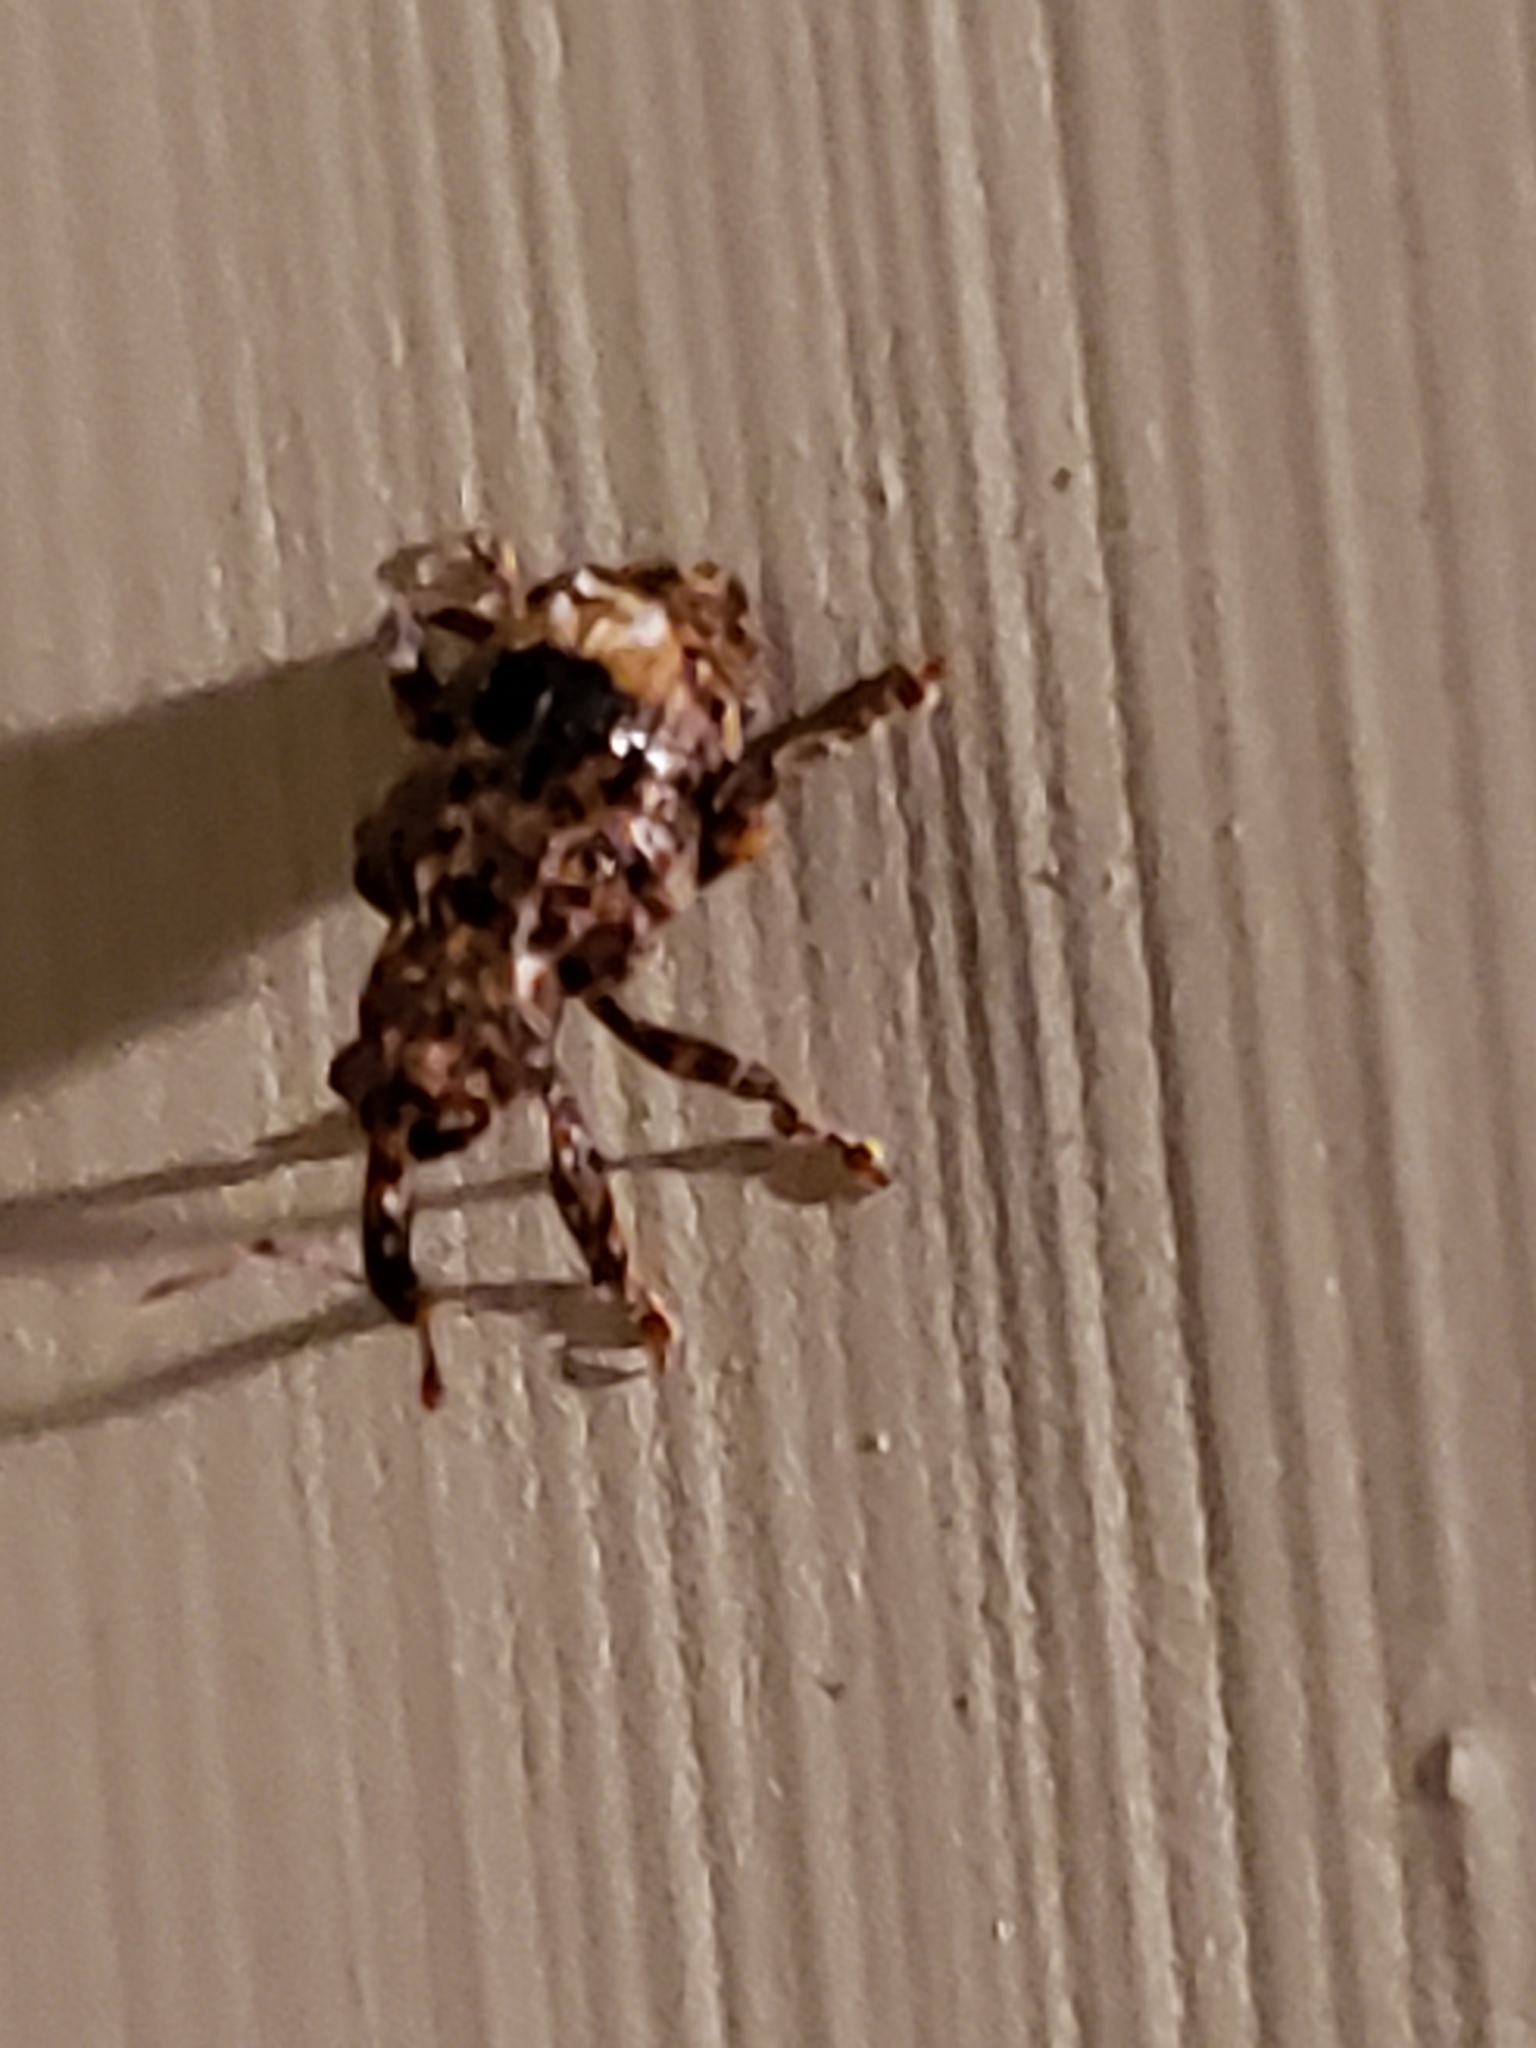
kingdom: Animalia
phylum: Arthropoda
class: Insecta
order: Coleoptera
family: Curculionidae
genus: Conotrachelus
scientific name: Conotrachelus nenuphar
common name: Plum curculio
